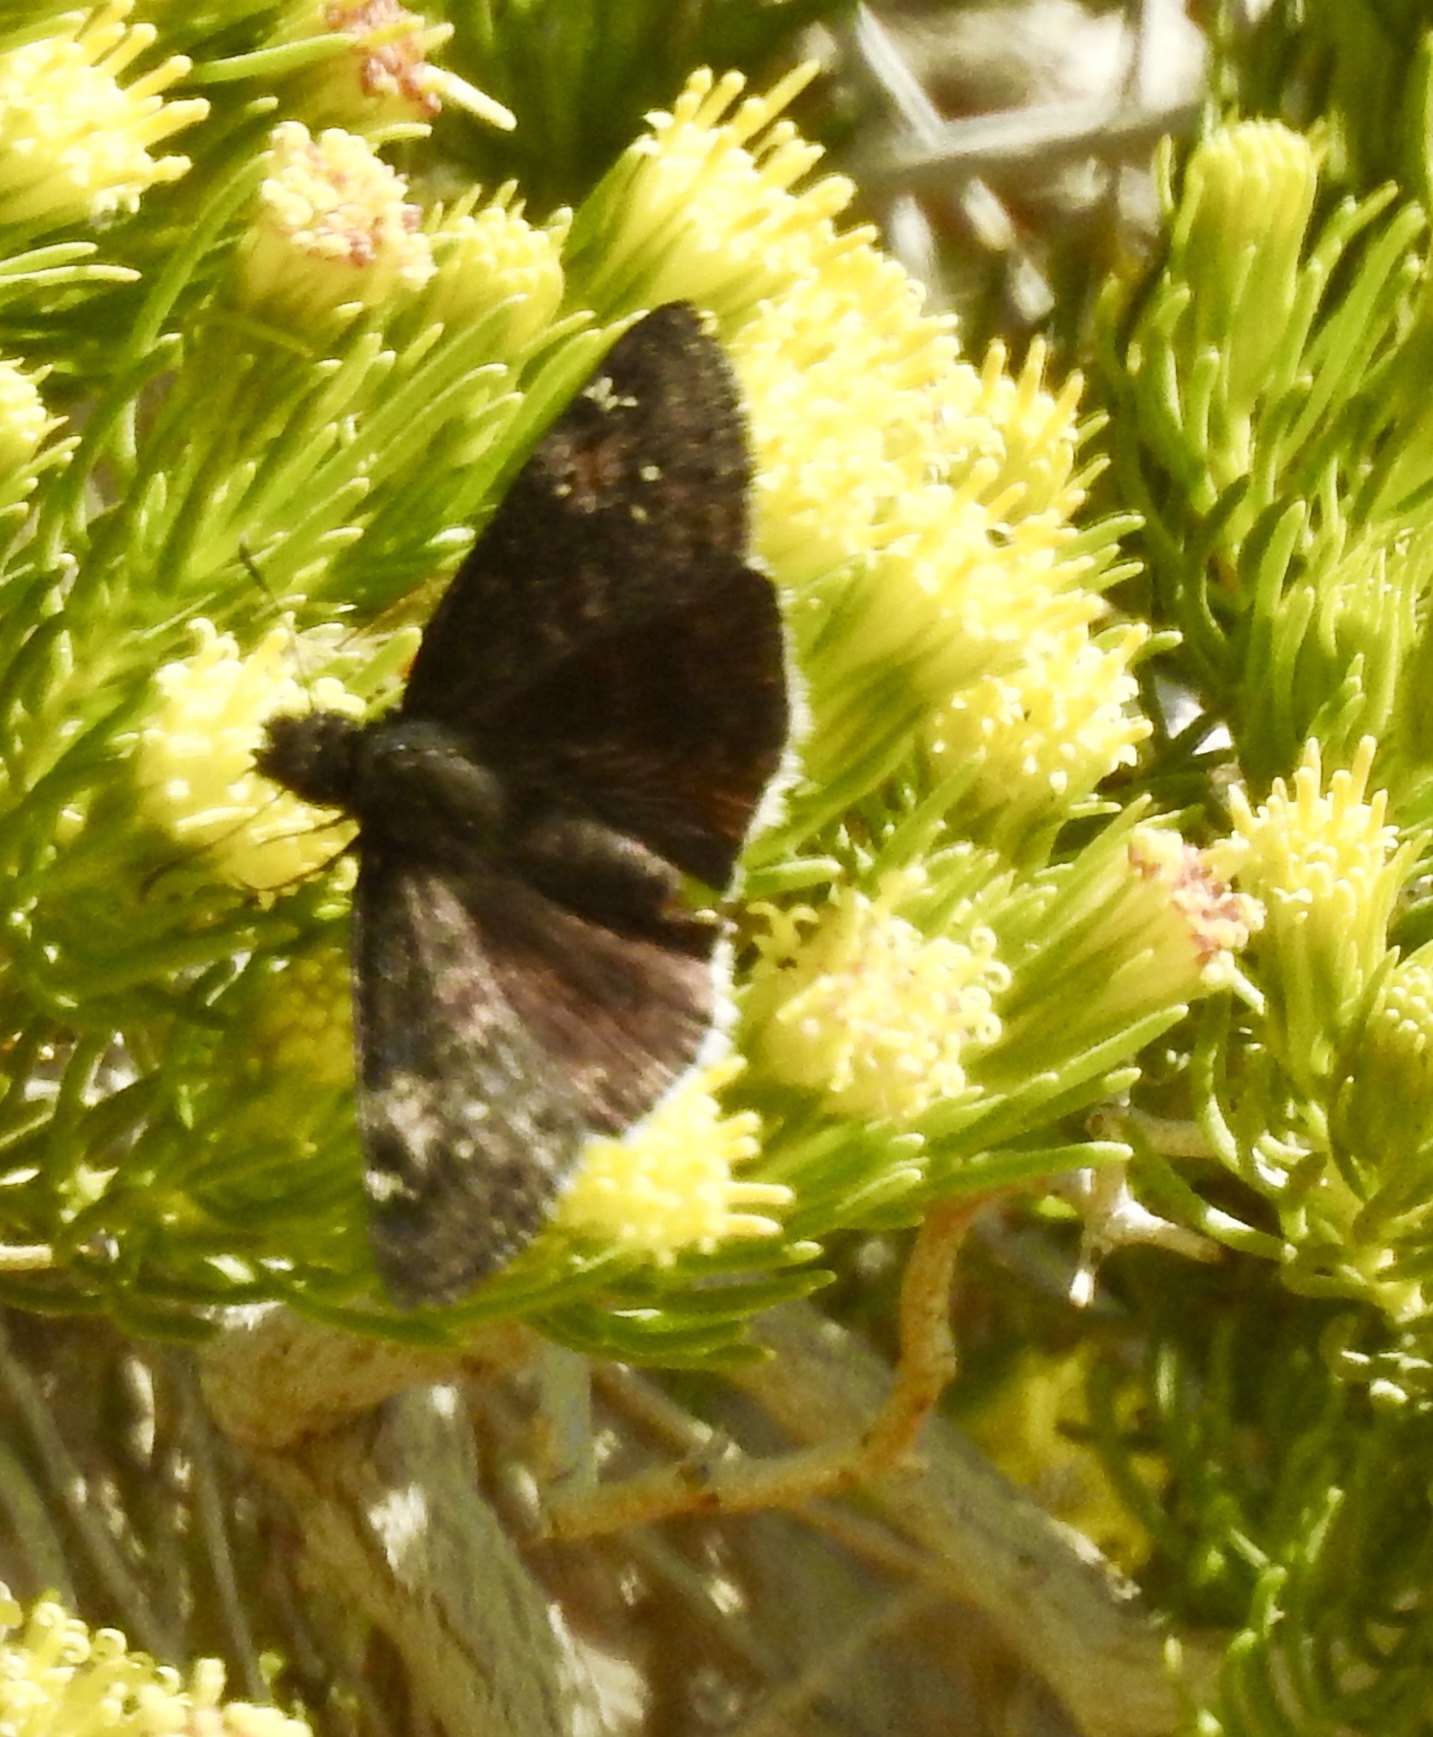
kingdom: Animalia
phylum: Arthropoda
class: Insecta
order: Lepidoptera
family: Hesperiidae
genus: Erynnis
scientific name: Erynnis funeralis
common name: Funereal duskywing
